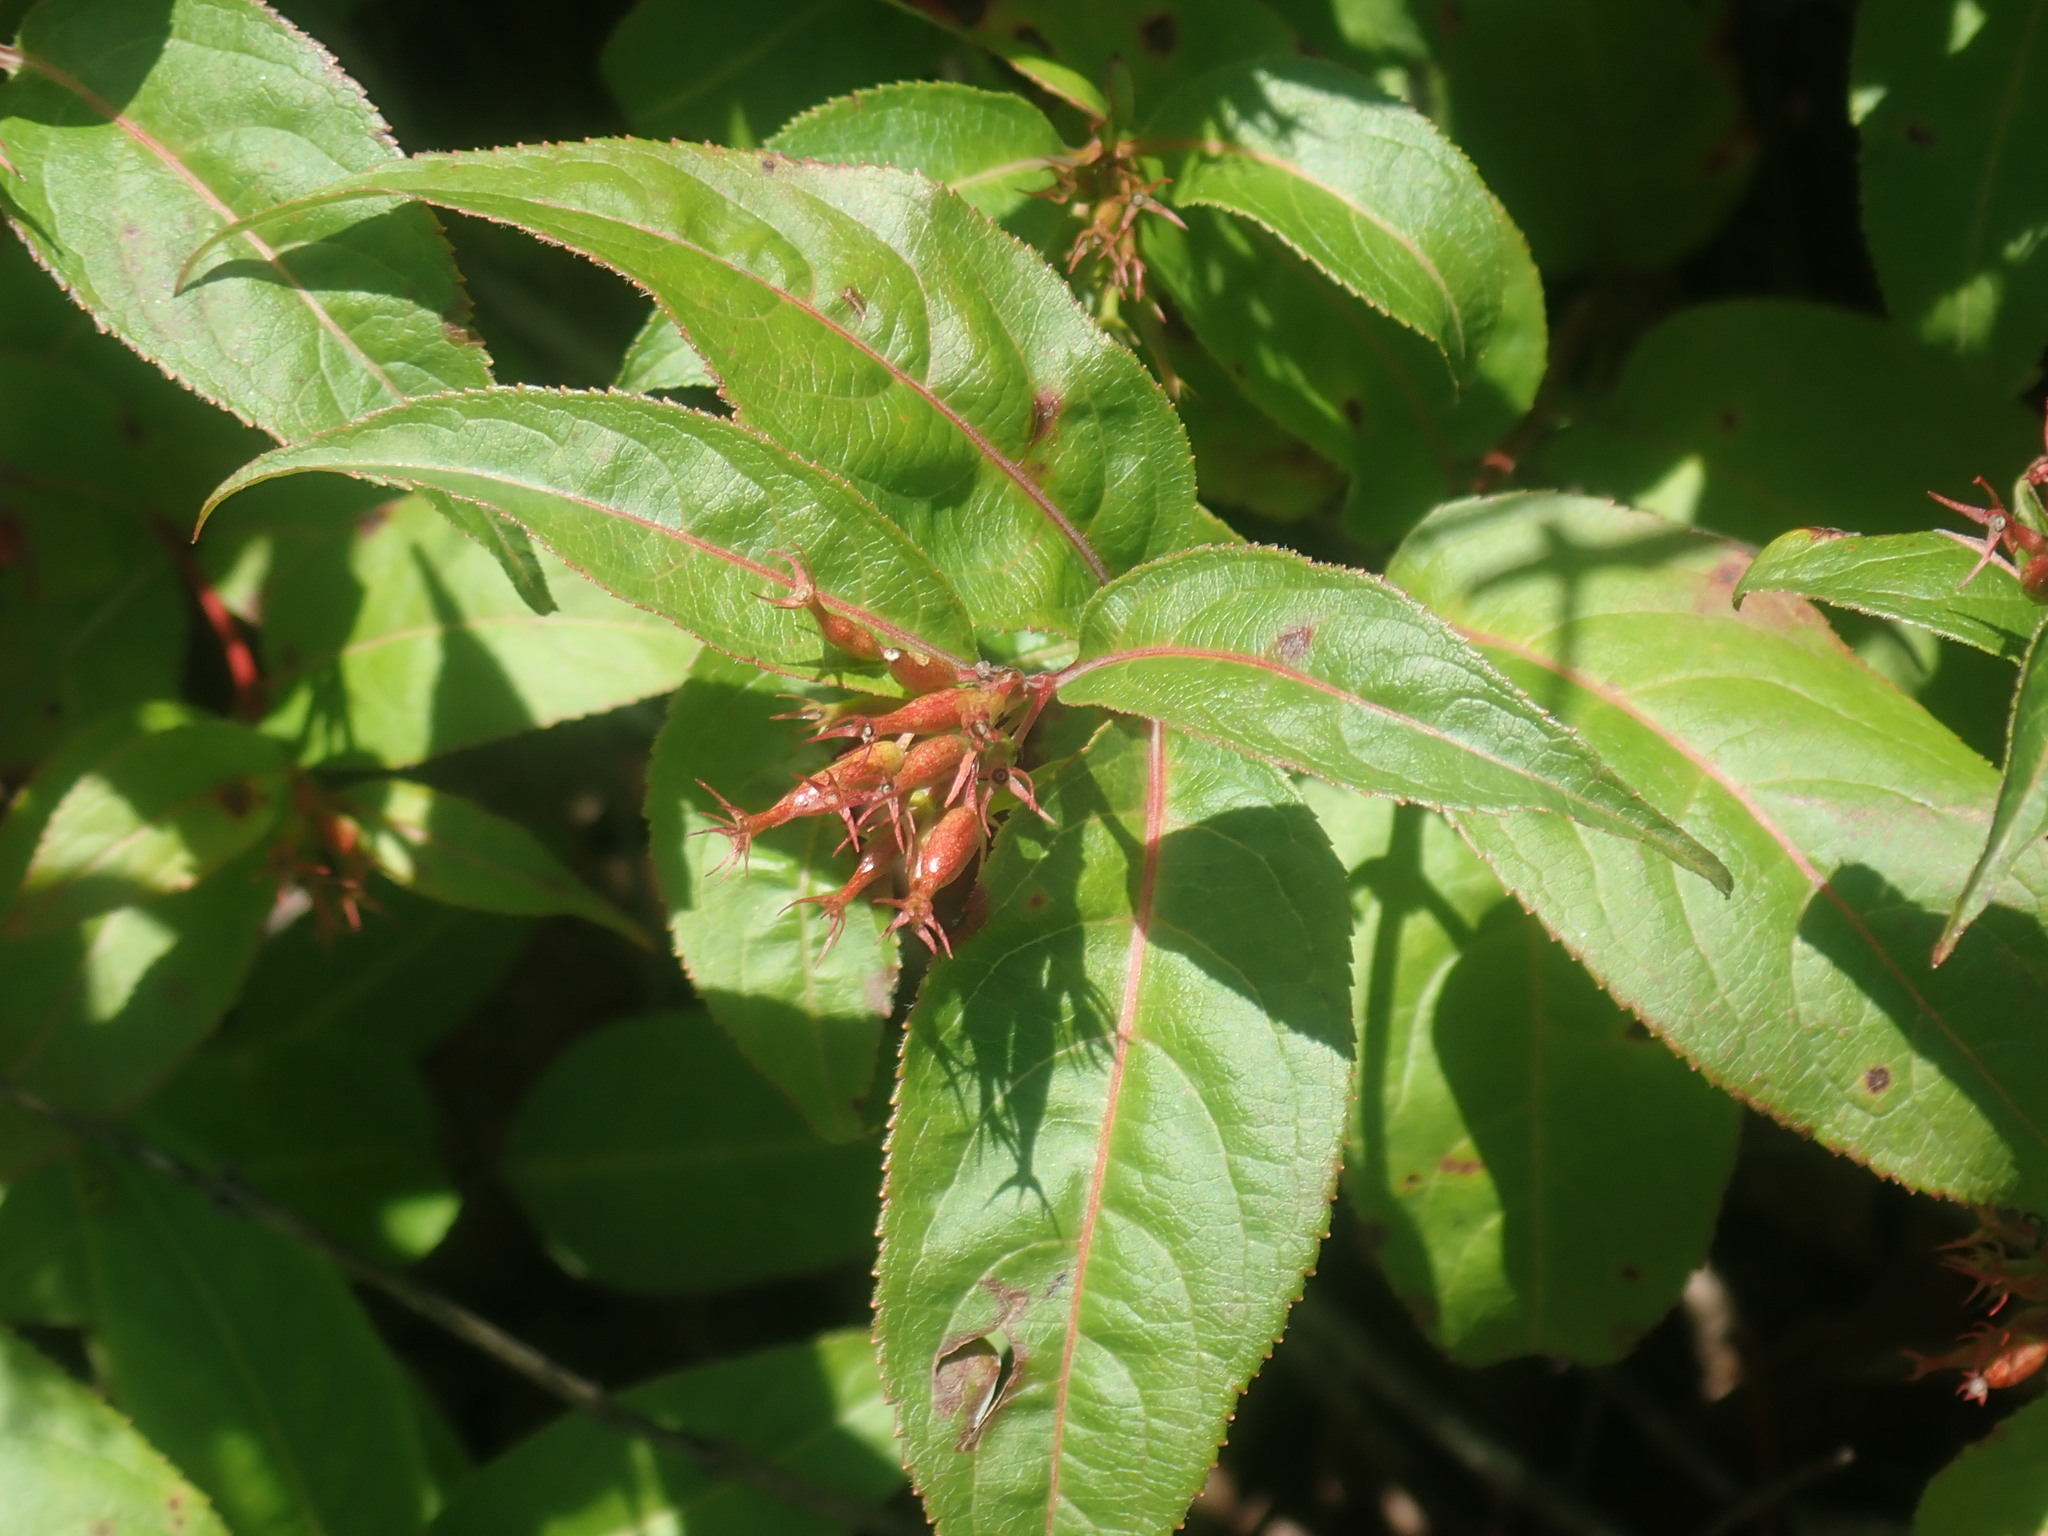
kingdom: Plantae
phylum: Tracheophyta
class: Magnoliopsida
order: Dipsacales
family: Caprifoliaceae
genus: Diervilla
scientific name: Diervilla lonicera
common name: Bush-honeysuckle
